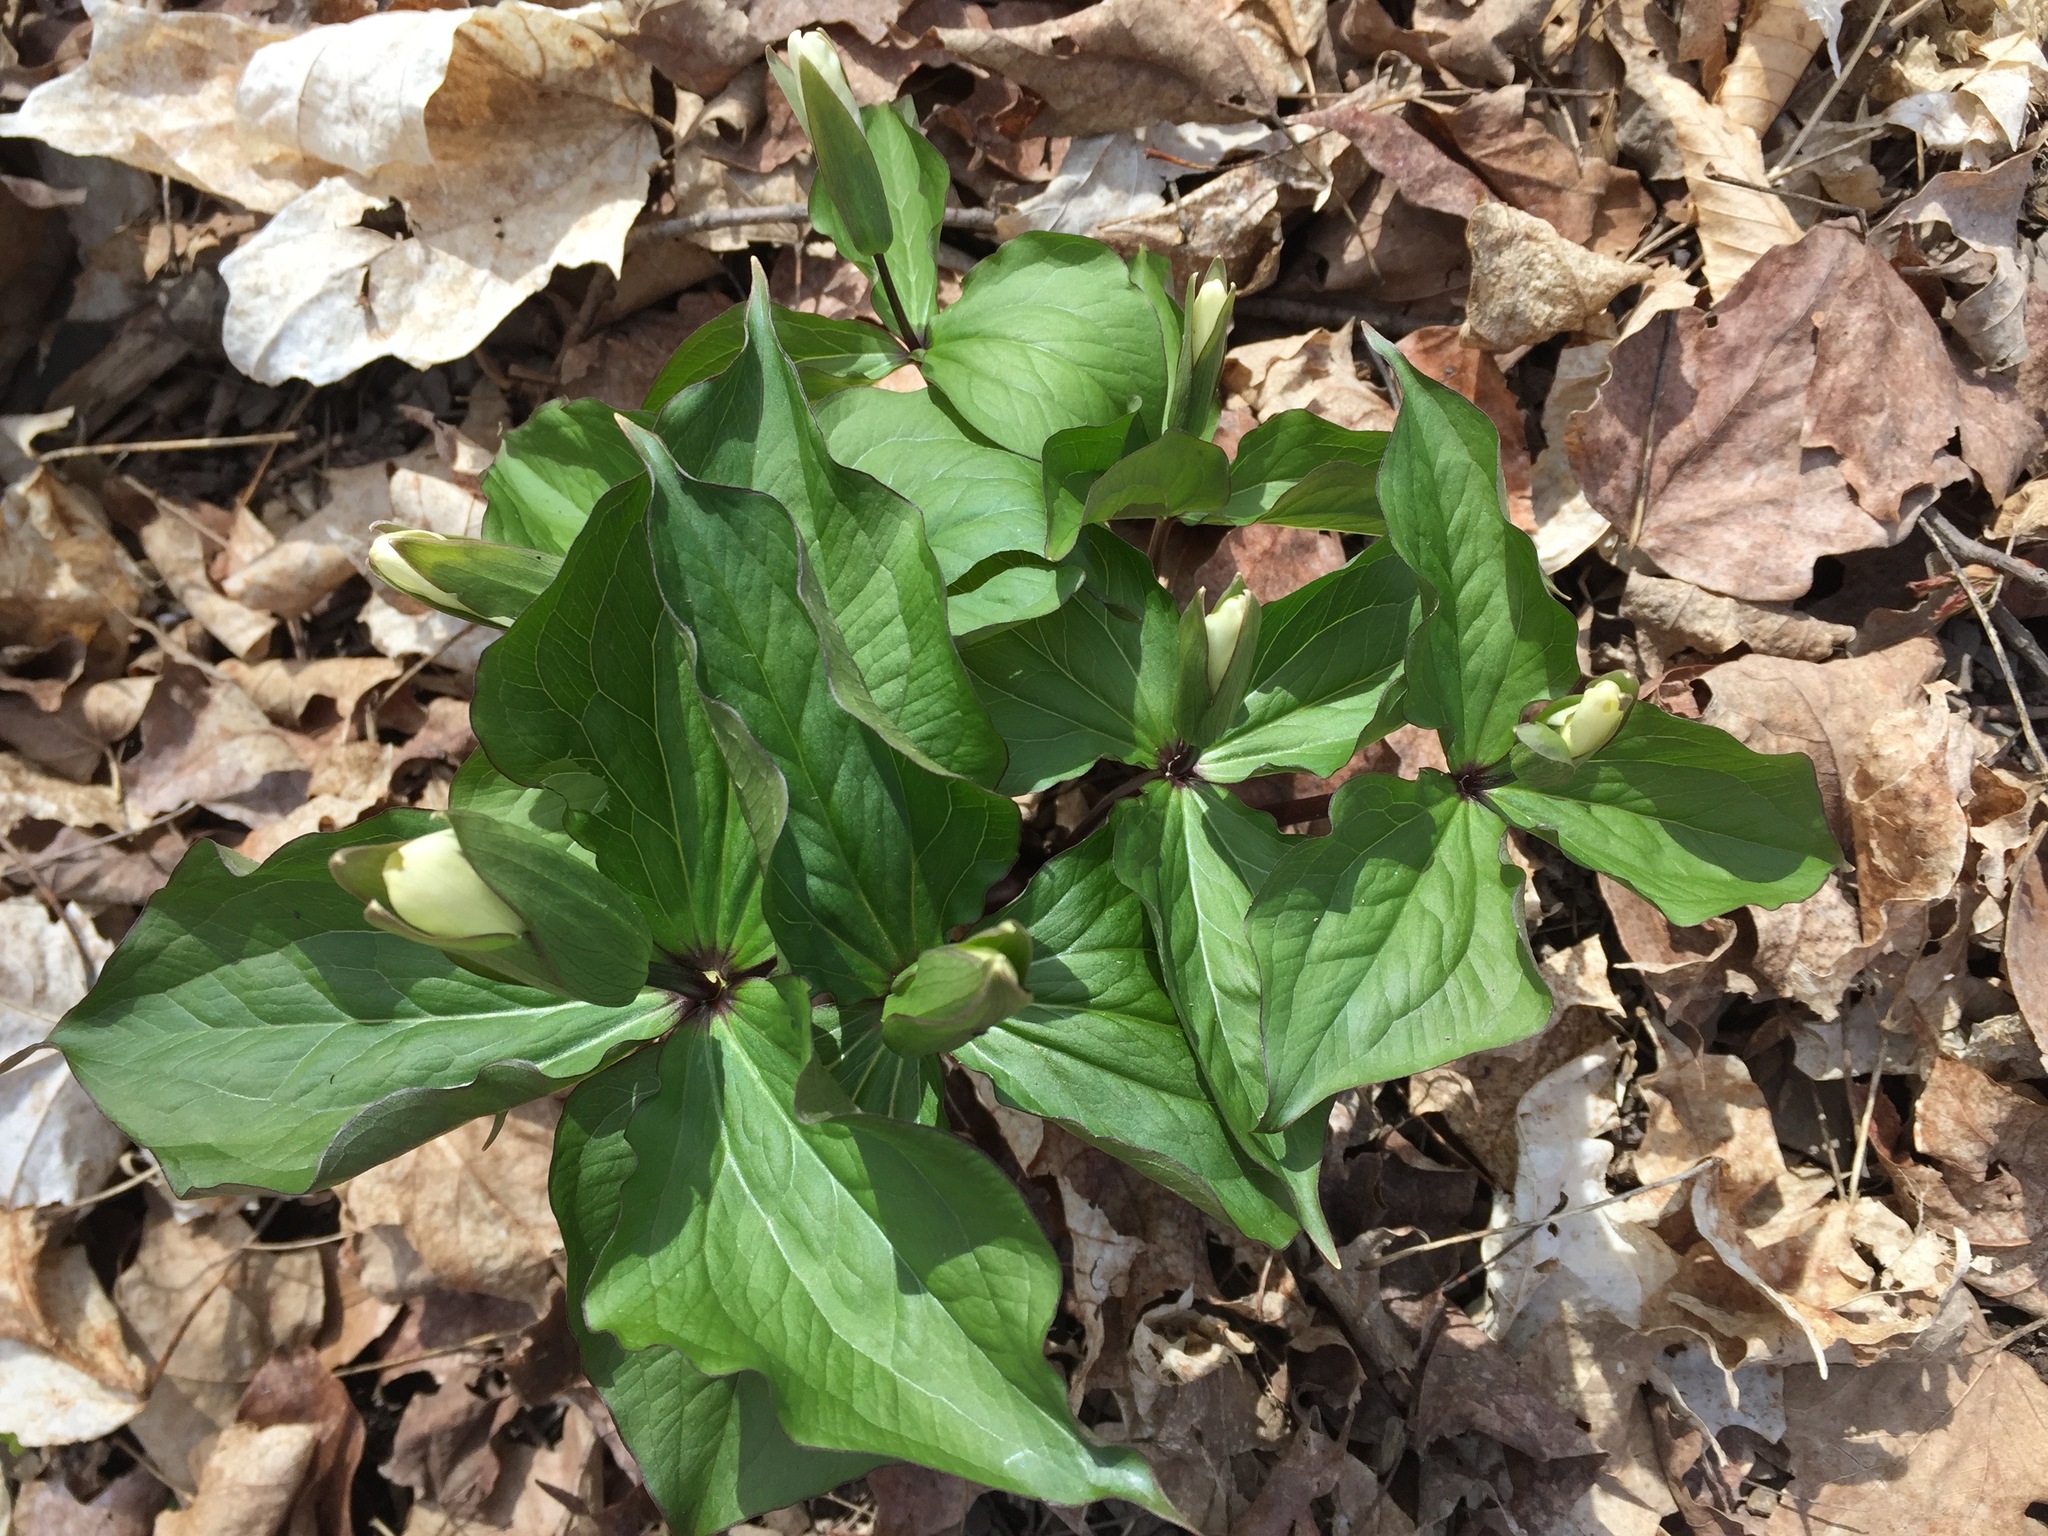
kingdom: Plantae
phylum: Tracheophyta
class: Liliopsida
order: Liliales
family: Melanthiaceae
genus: Trillium
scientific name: Trillium grandiflorum
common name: Great white trillium
